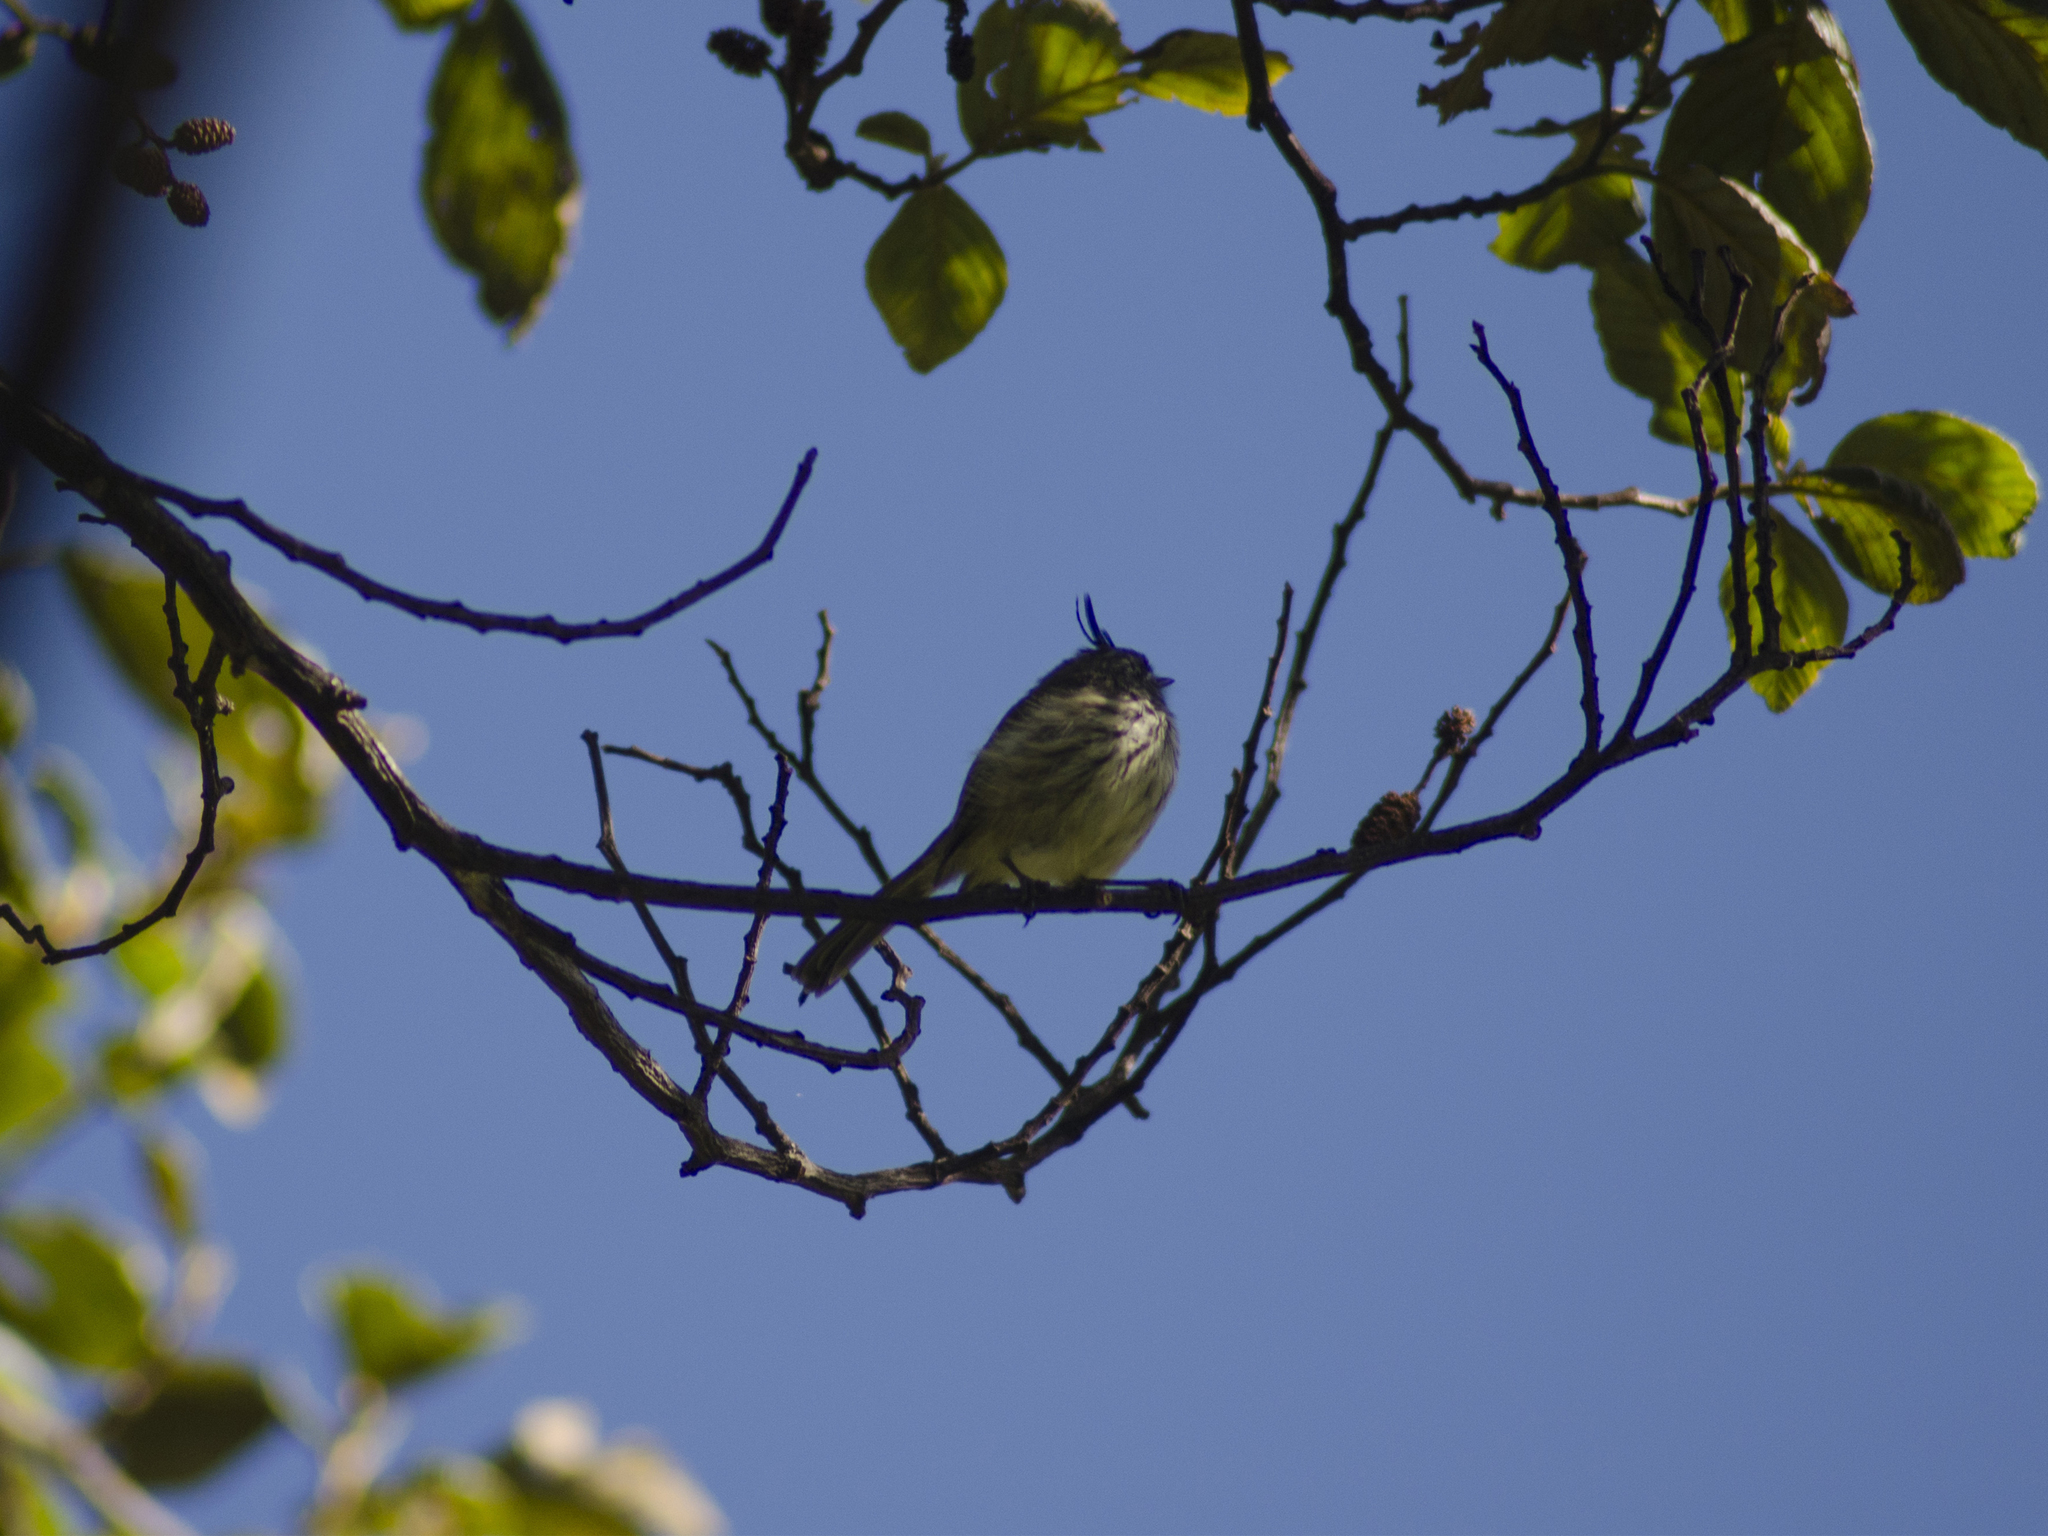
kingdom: Animalia
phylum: Chordata
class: Aves
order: Passeriformes
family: Tyrannidae
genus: Anairetes
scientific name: Anairetes parulus
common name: Tufted tit-tyrant
